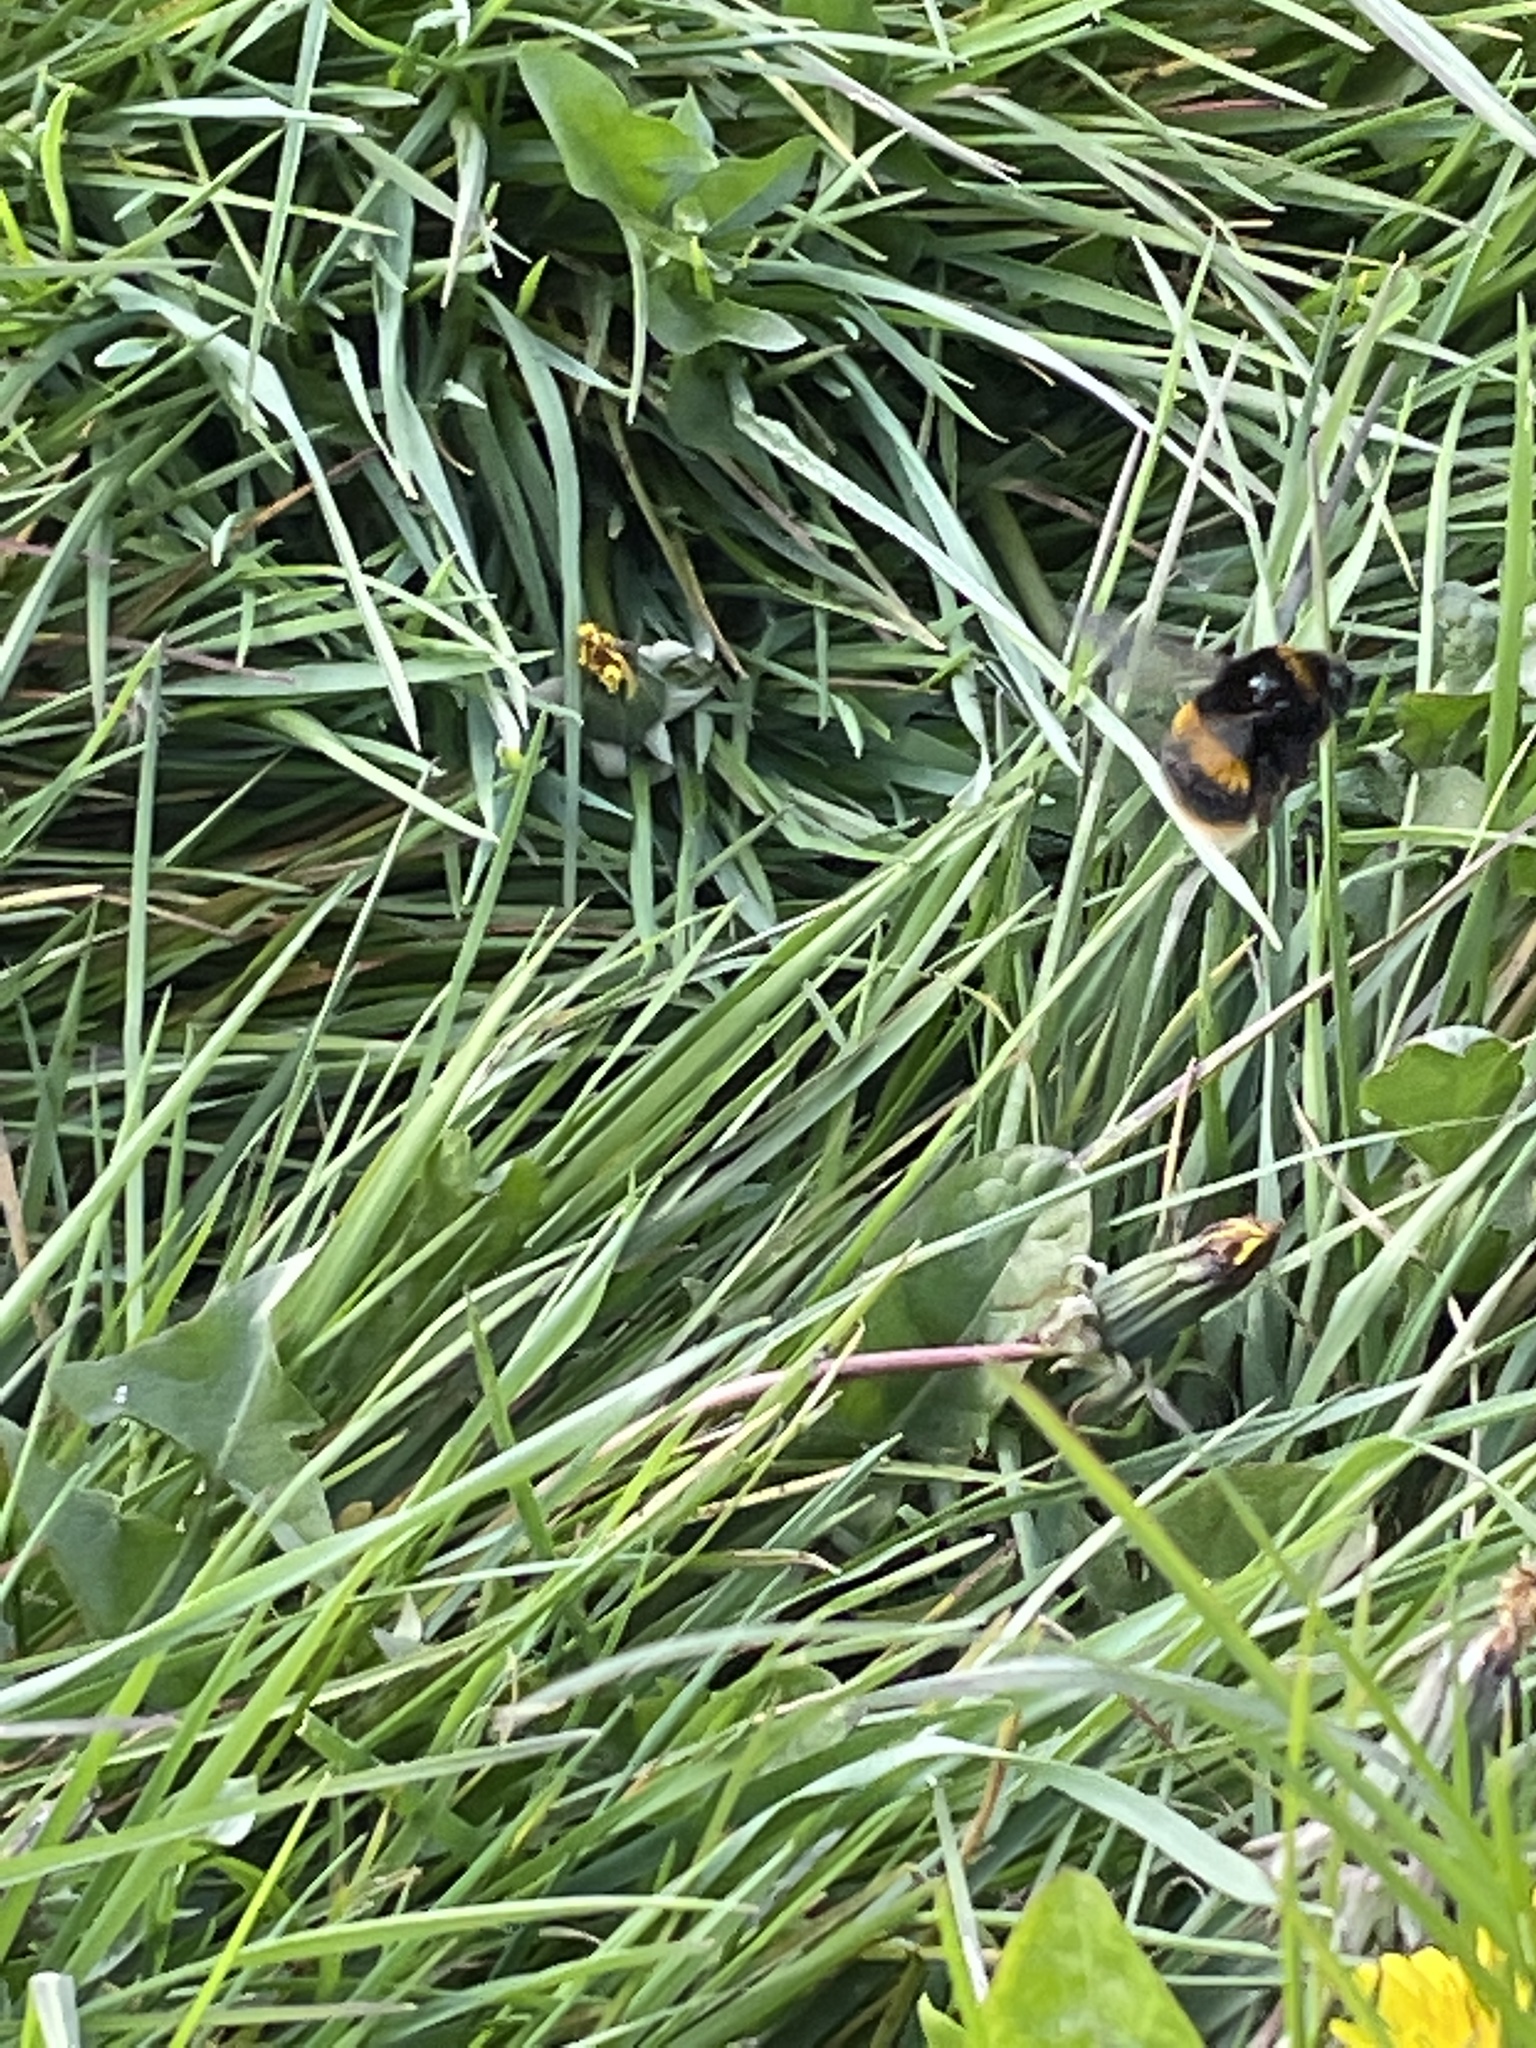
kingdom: Animalia
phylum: Arthropoda
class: Insecta
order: Hymenoptera
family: Apidae
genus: Bombus
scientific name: Bombus terrestris
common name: Buff-tailed bumblebee
